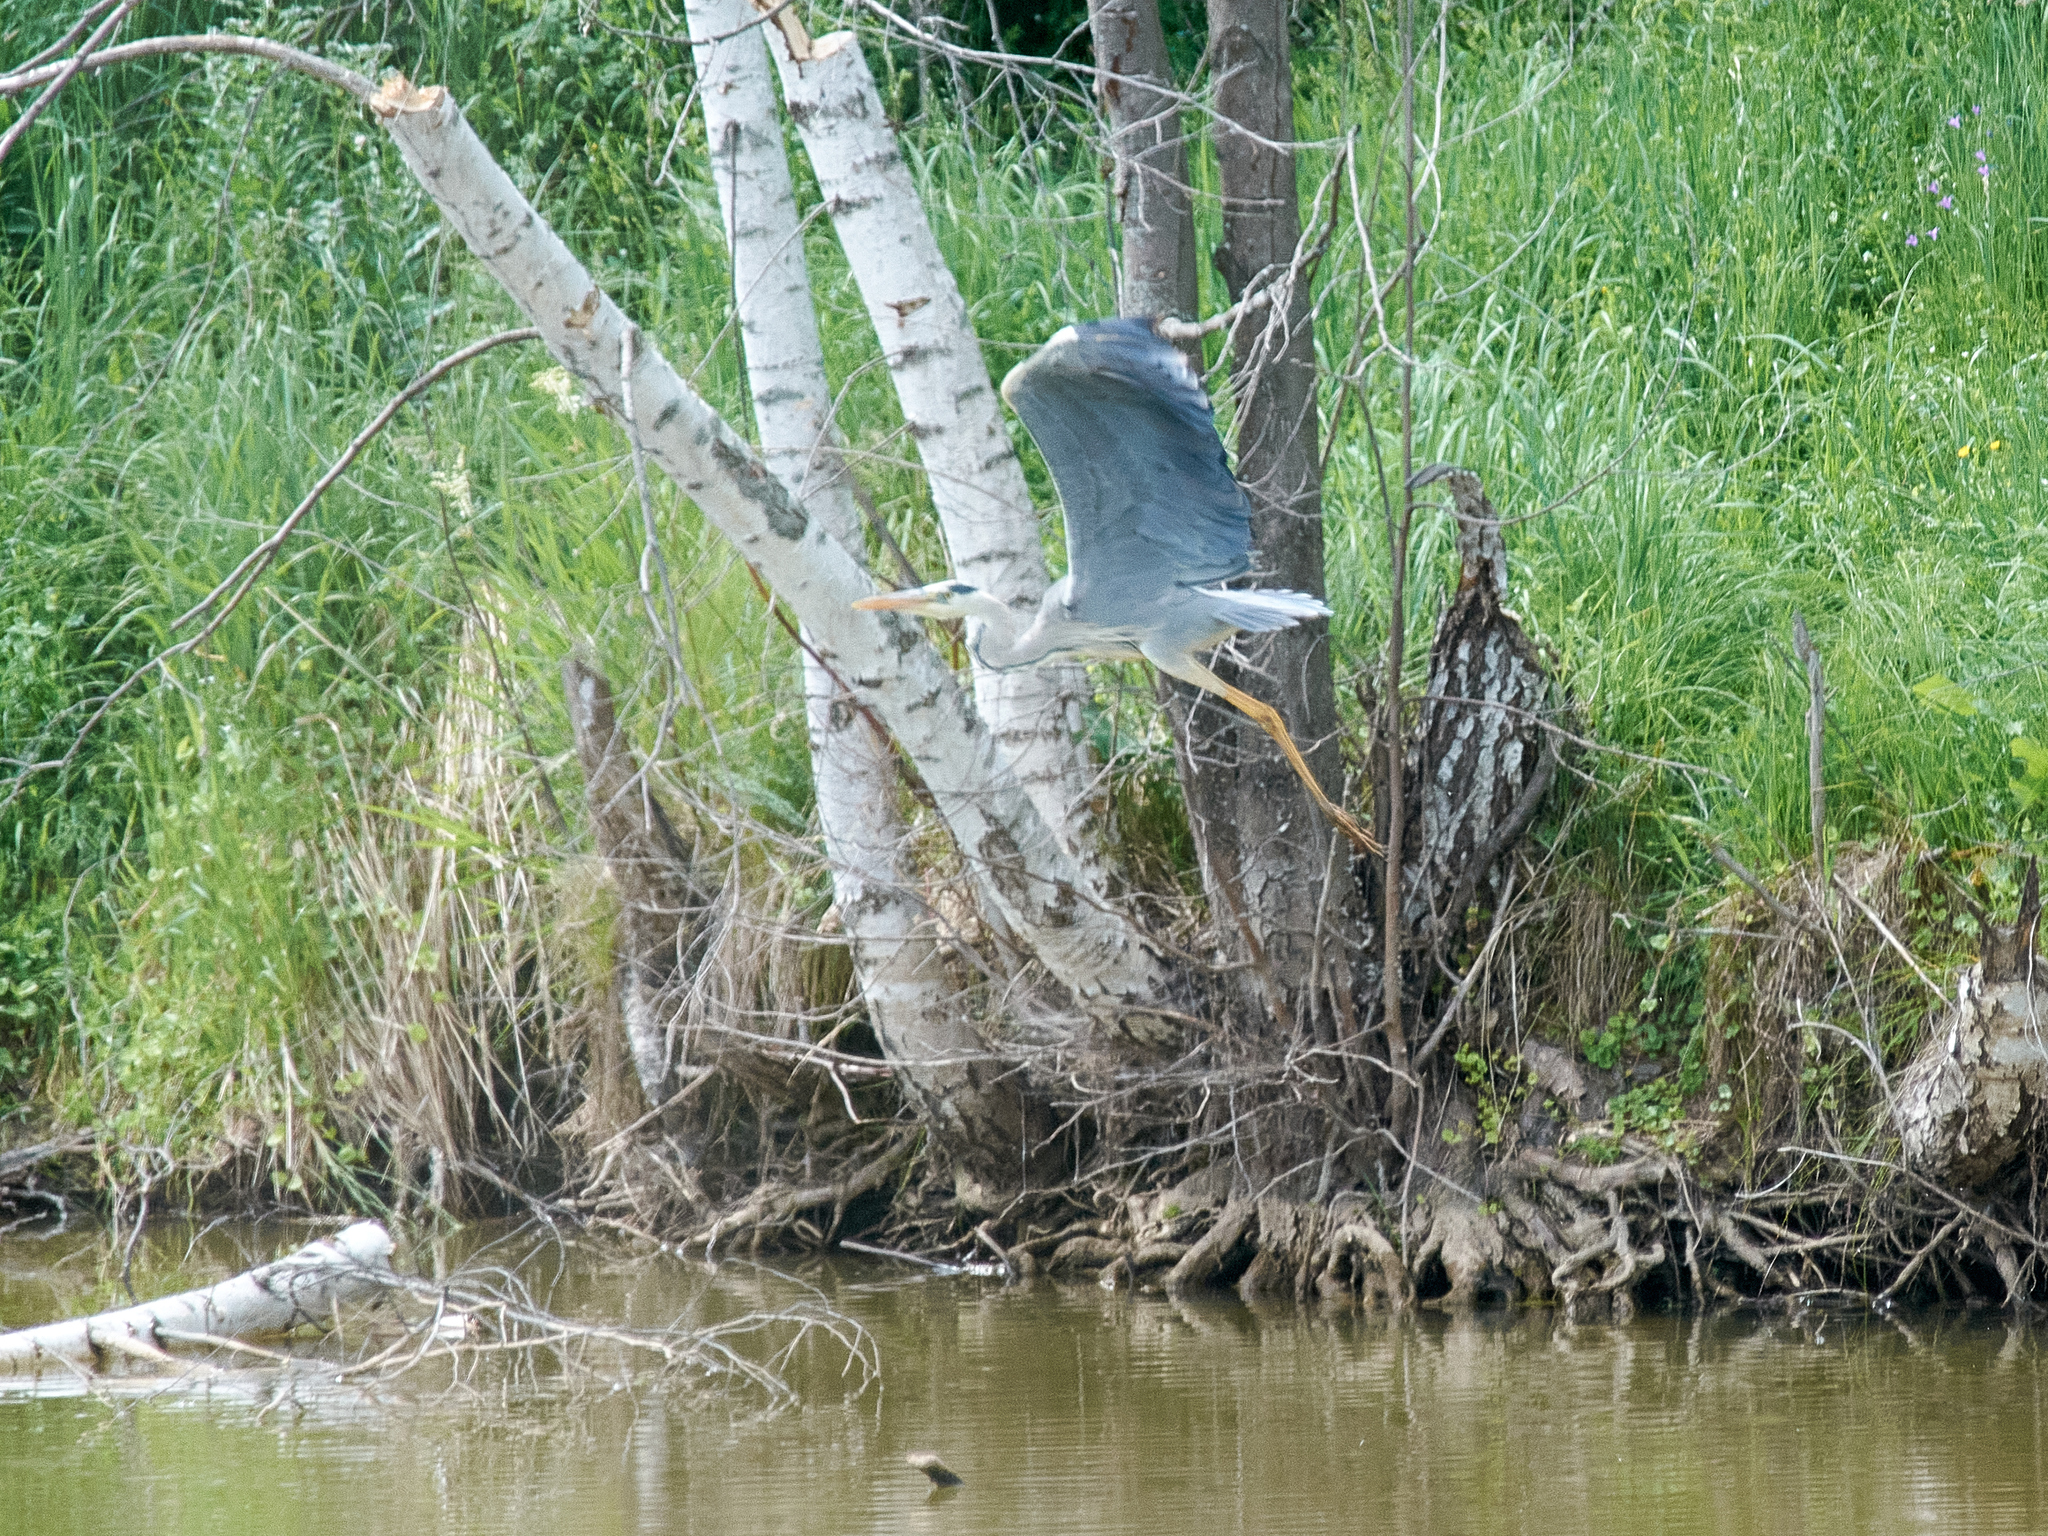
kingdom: Animalia
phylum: Chordata
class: Aves
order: Pelecaniformes
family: Ardeidae
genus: Ardea
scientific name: Ardea cinerea
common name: Grey heron
